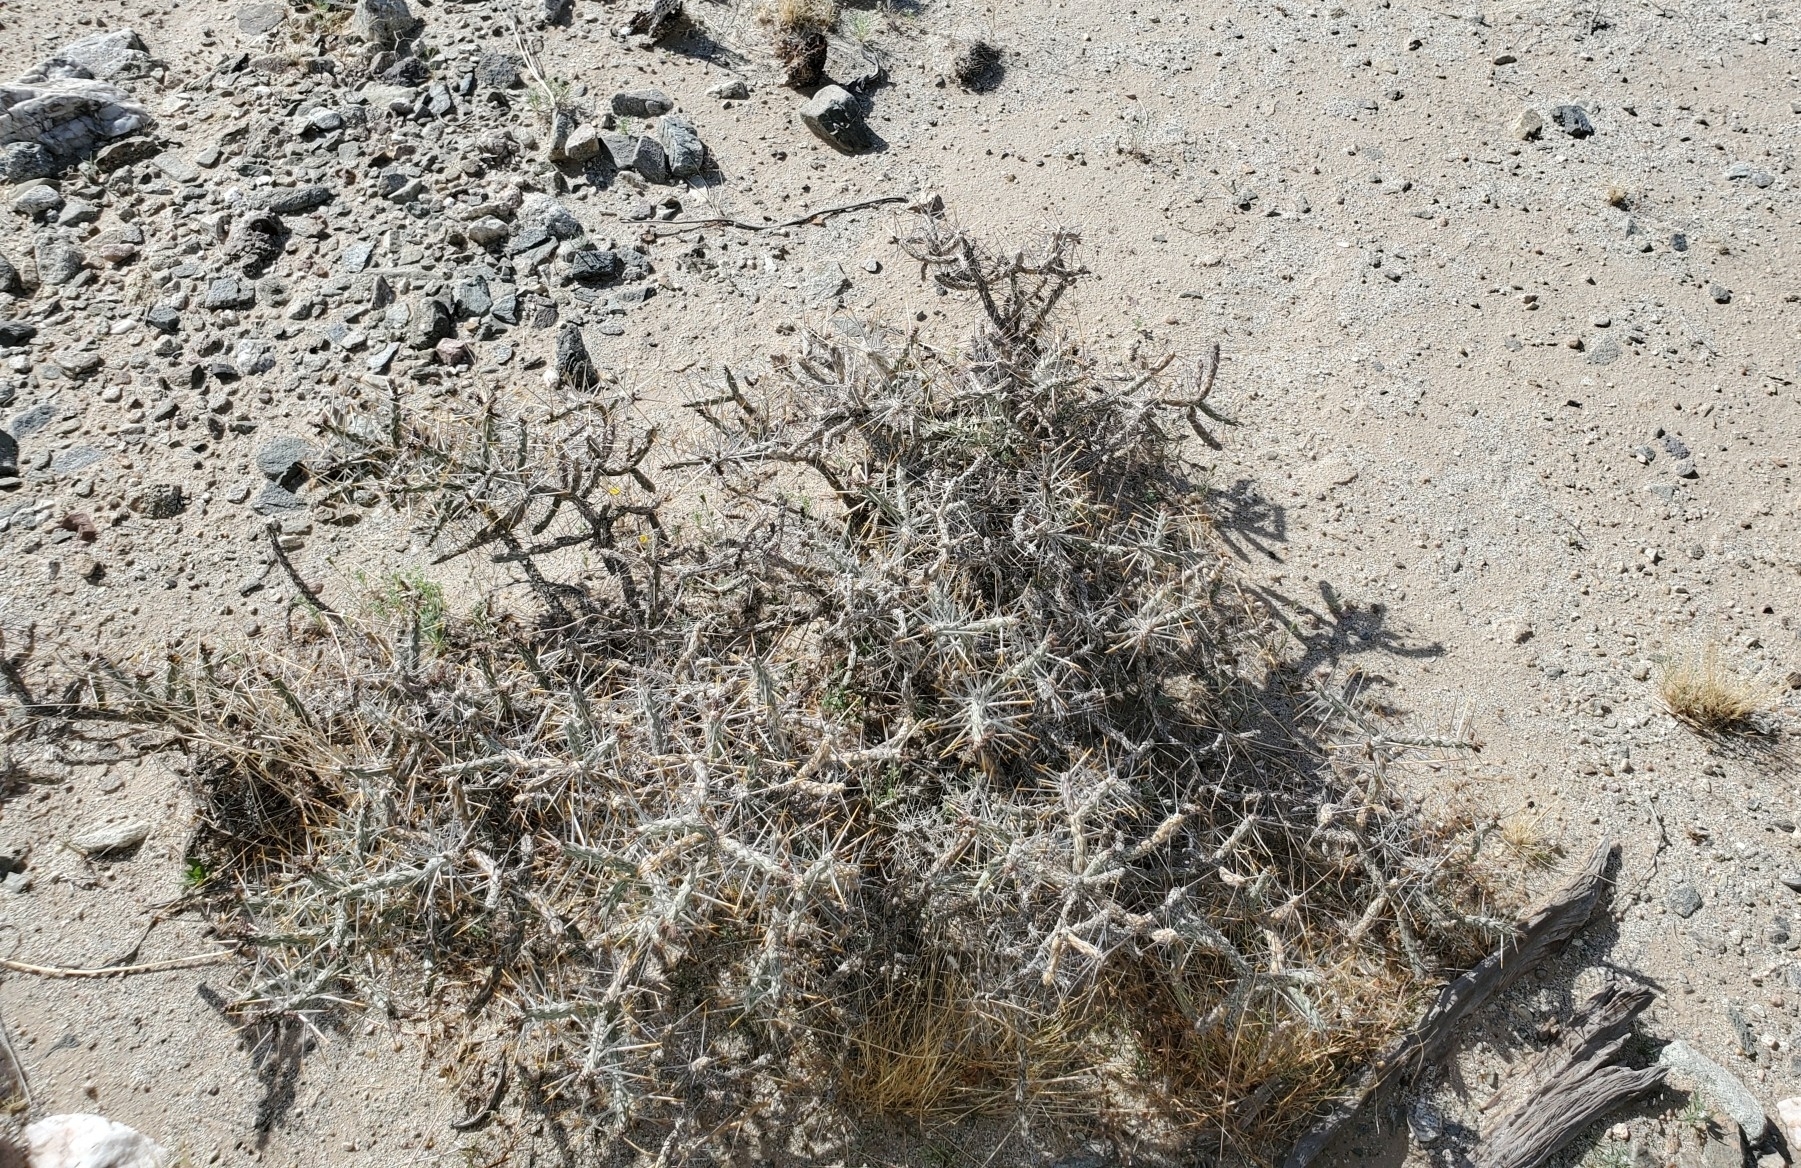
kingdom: Plantae
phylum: Tracheophyta
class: Magnoliopsida
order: Caryophyllales
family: Cactaceae
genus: Cylindropuntia
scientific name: Cylindropuntia ramosissima
